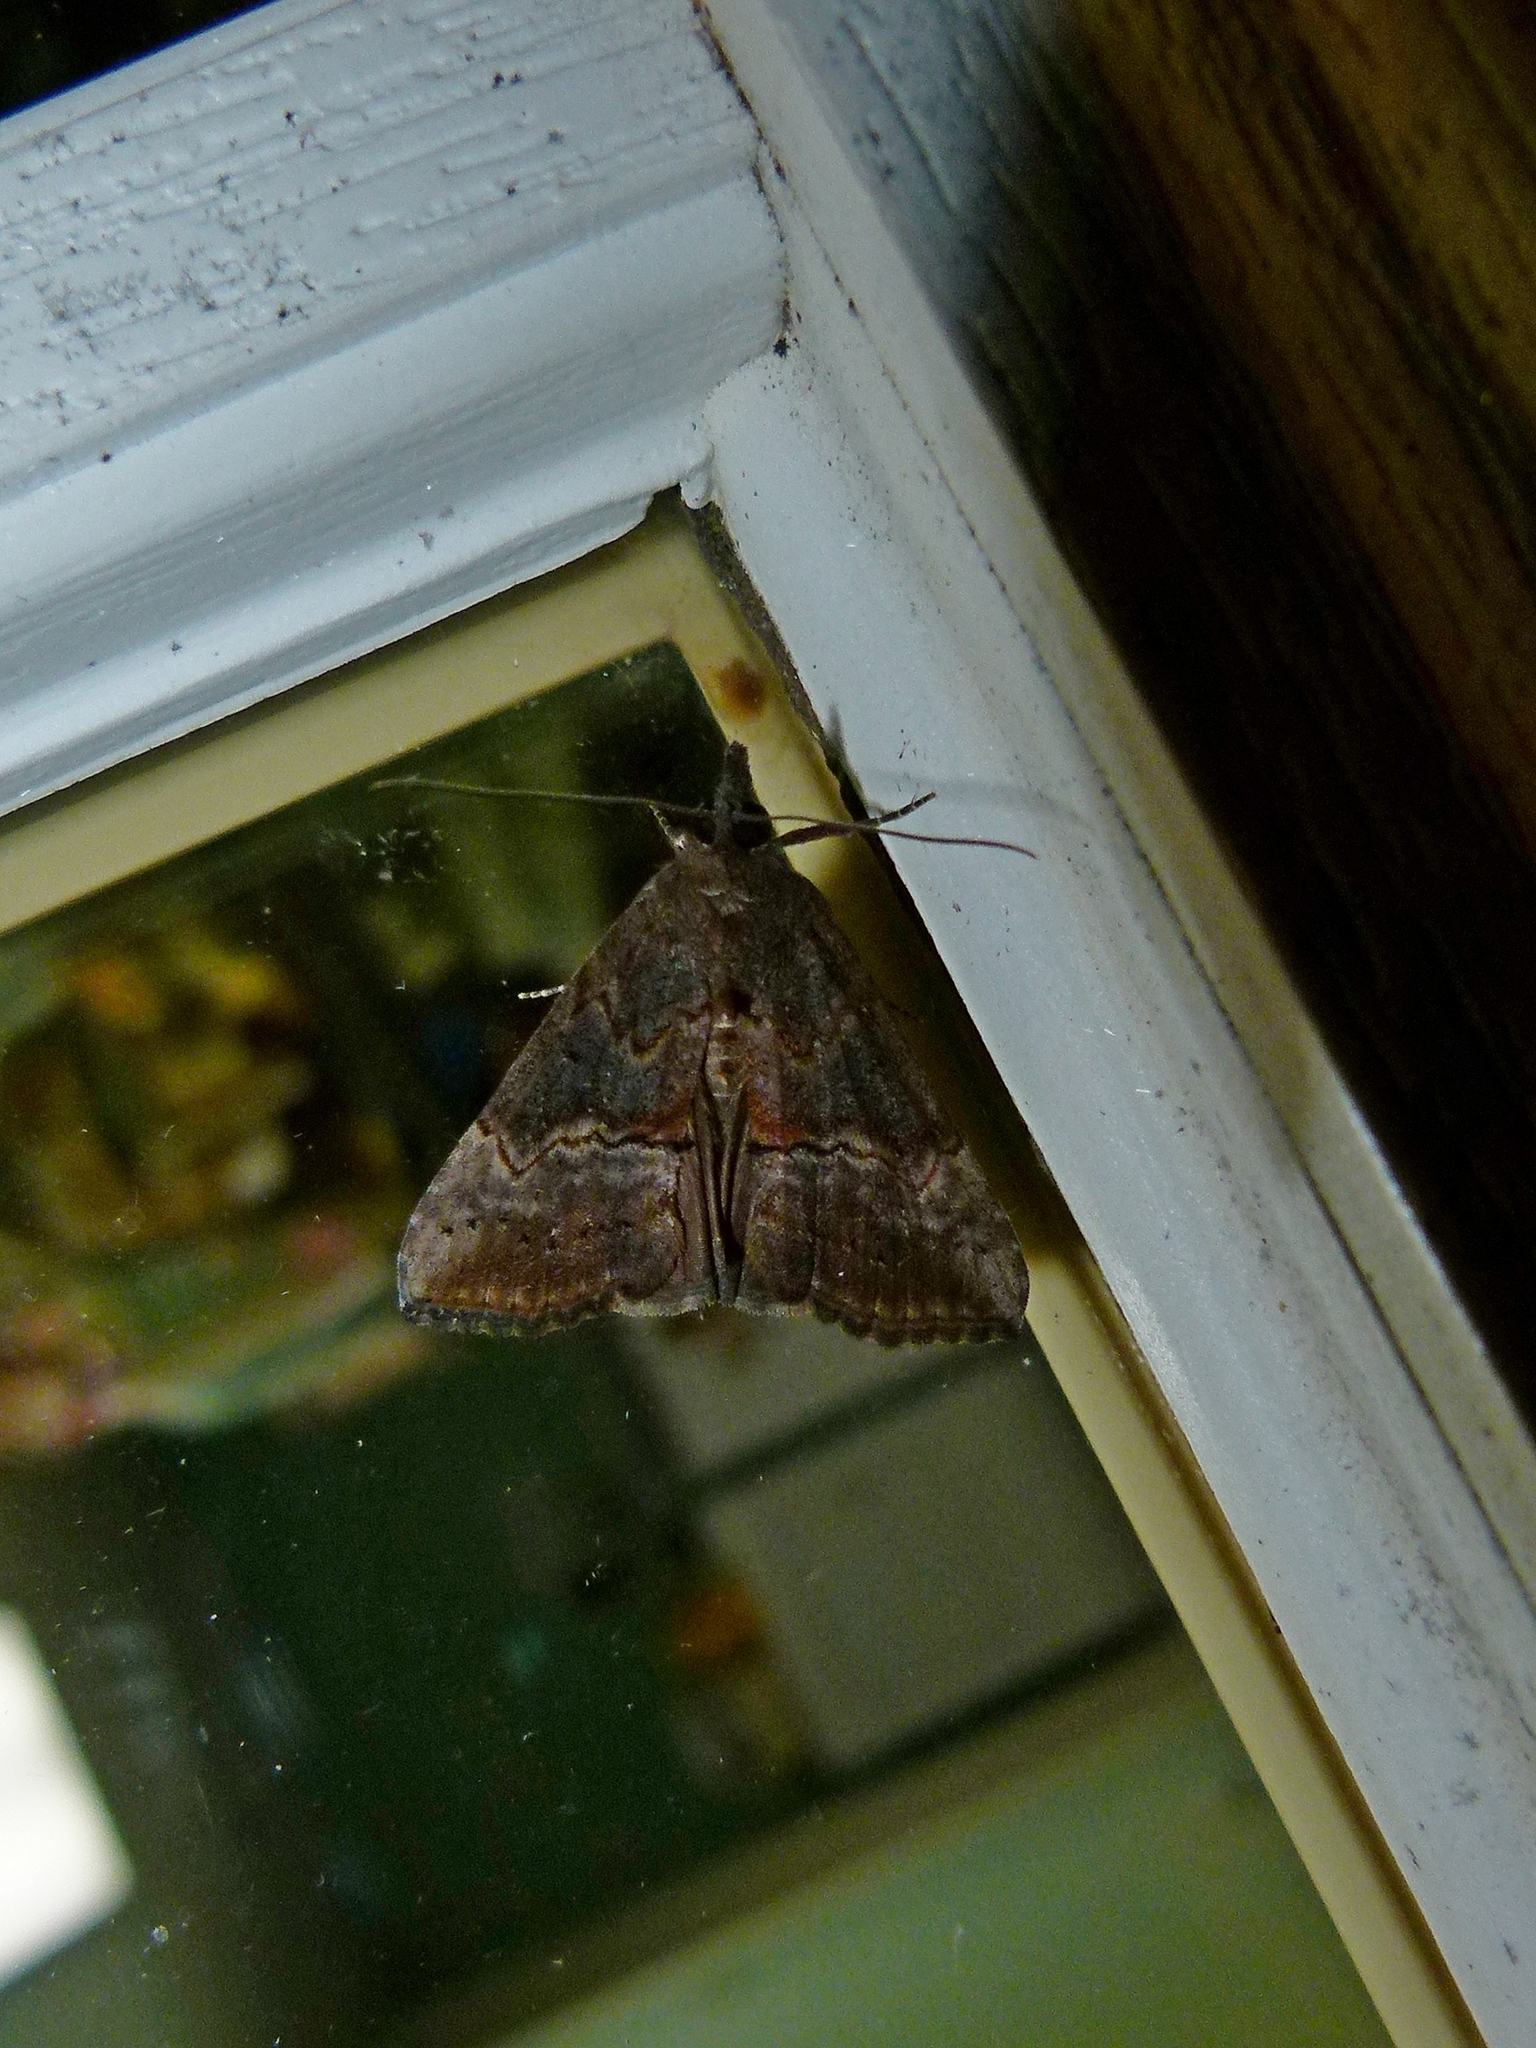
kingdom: Animalia
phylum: Arthropoda
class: Insecta
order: Lepidoptera
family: Erebidae
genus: Hypena
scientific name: Hypena scabra
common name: Green cloverworm
